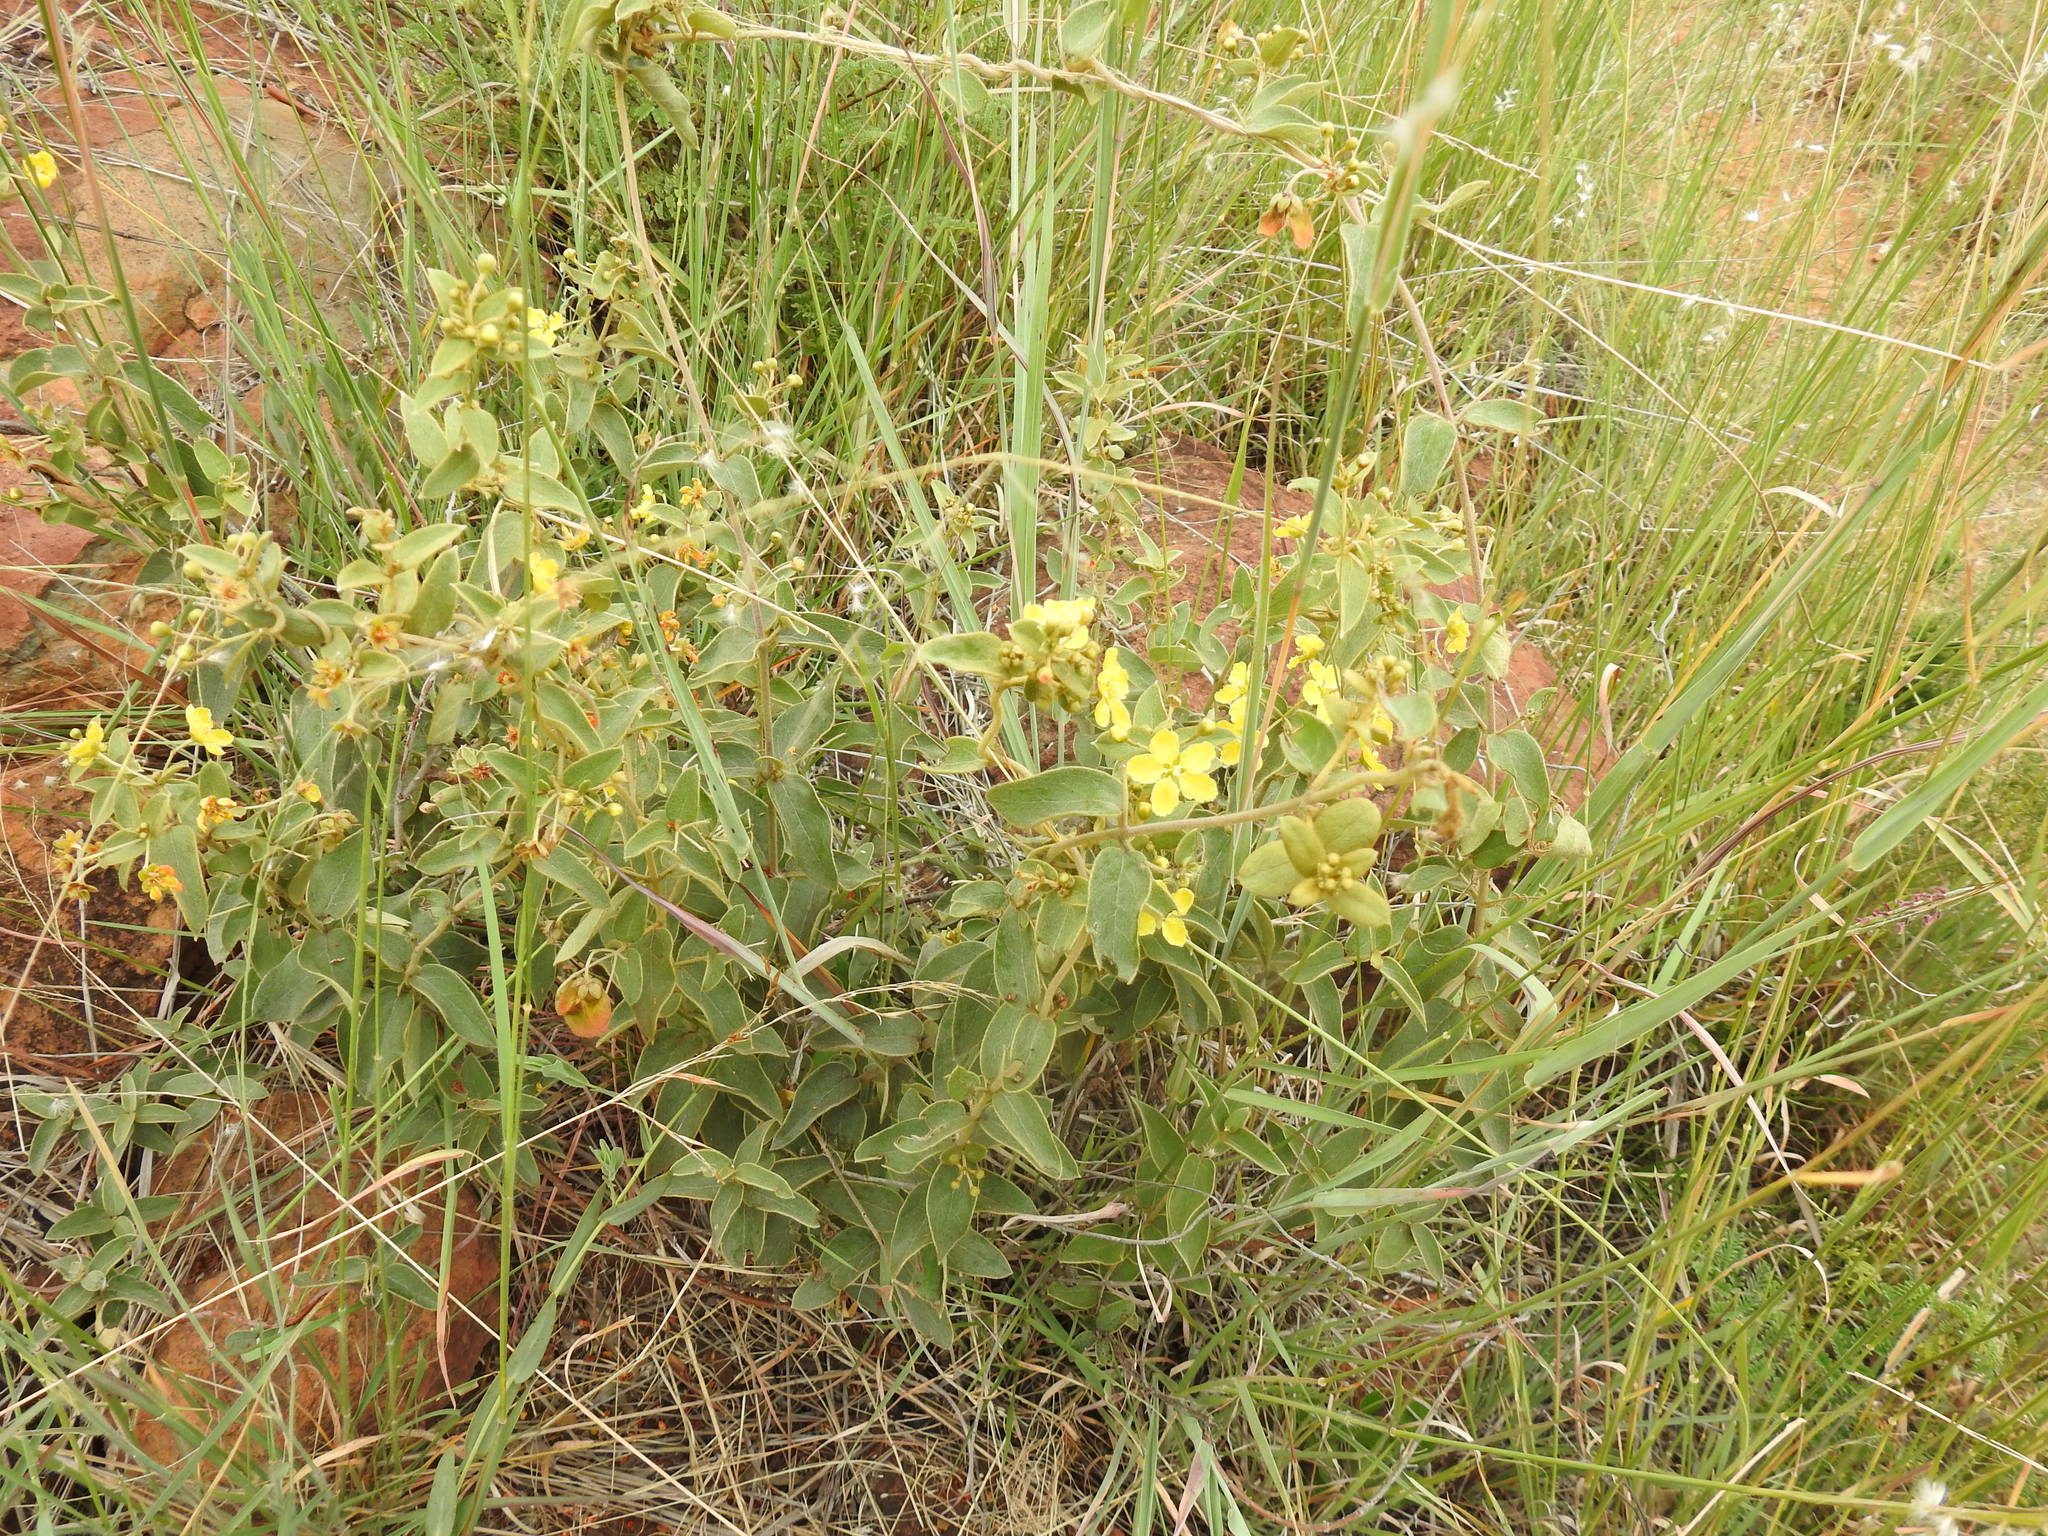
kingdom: Plantae
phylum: Tracheophyta
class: Magnoliopsida
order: Malpighiales
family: Malpighiaceae
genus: Sphedamnocarpus
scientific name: Sphedamnocarpus pruriens
